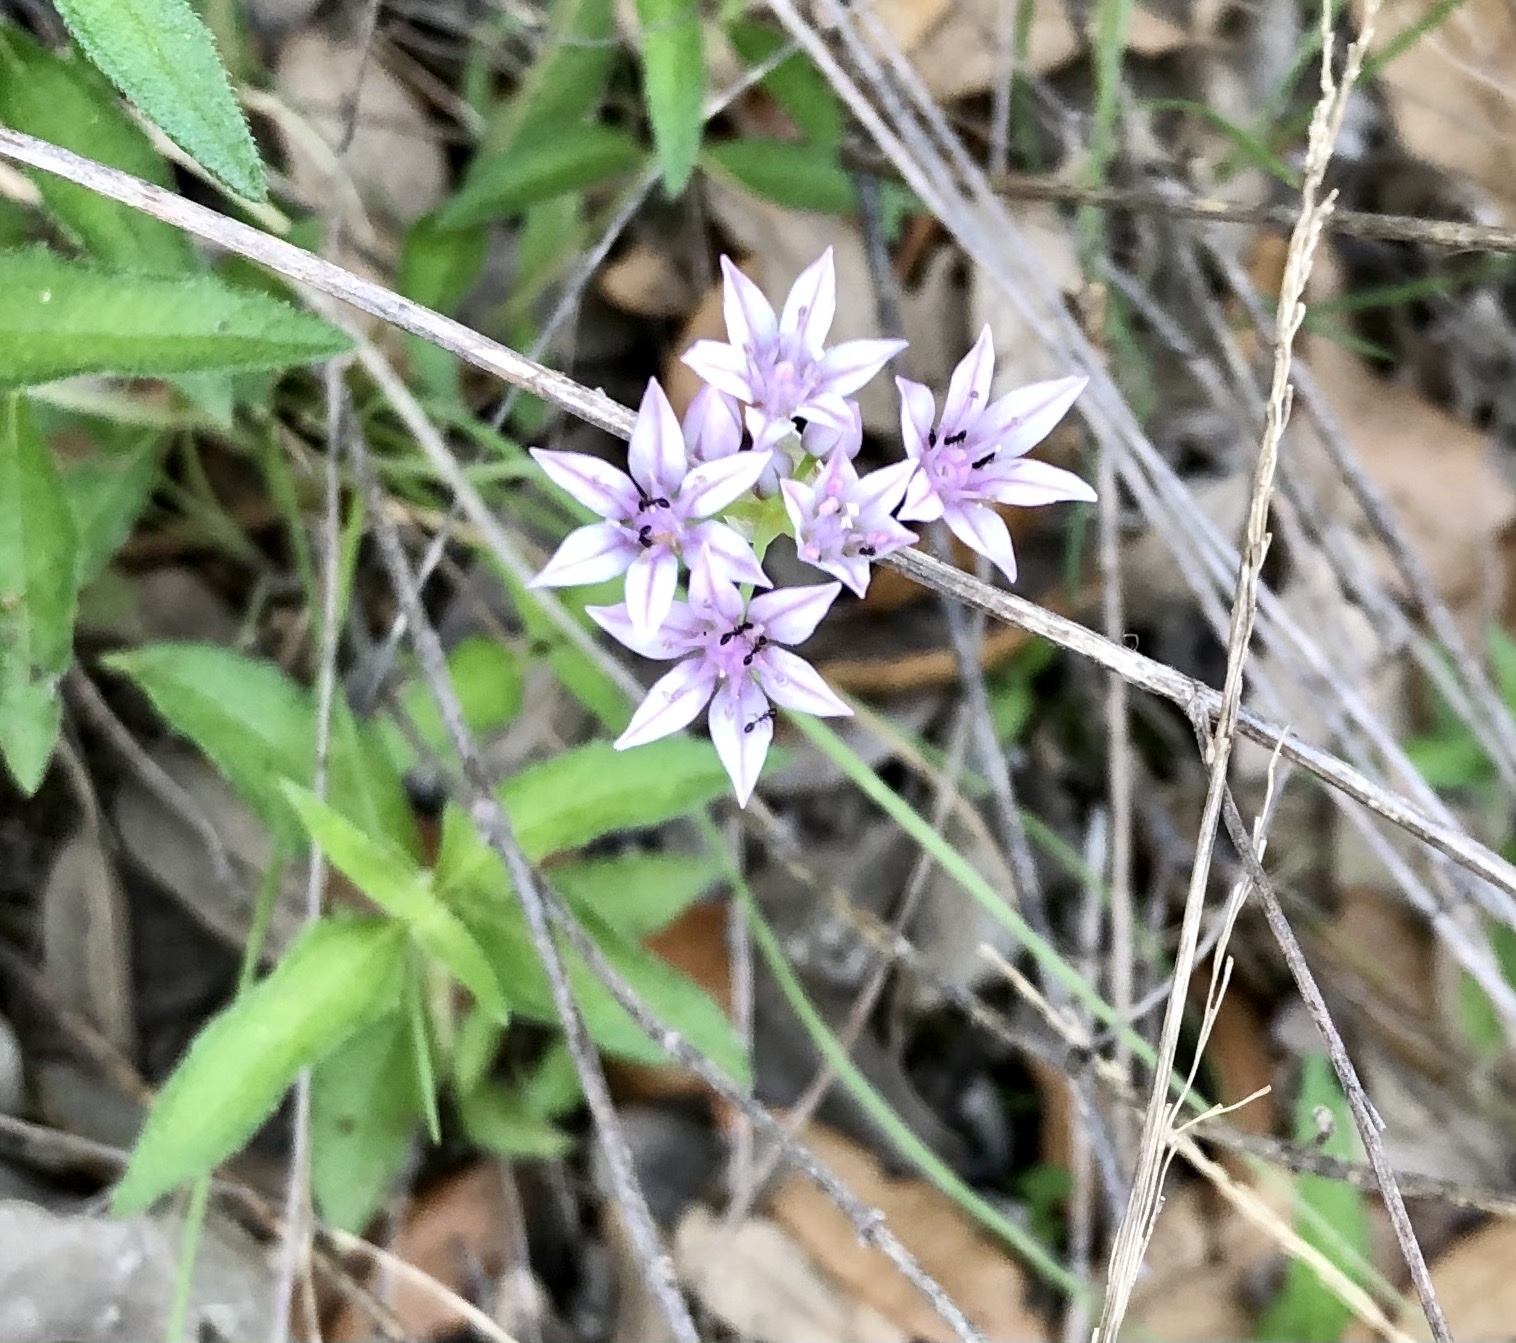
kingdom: Plantae
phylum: Tracheophyta
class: Liliopsida
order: Asparagales
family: Amaryllidaceae
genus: Allium
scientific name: Allium drummondii
